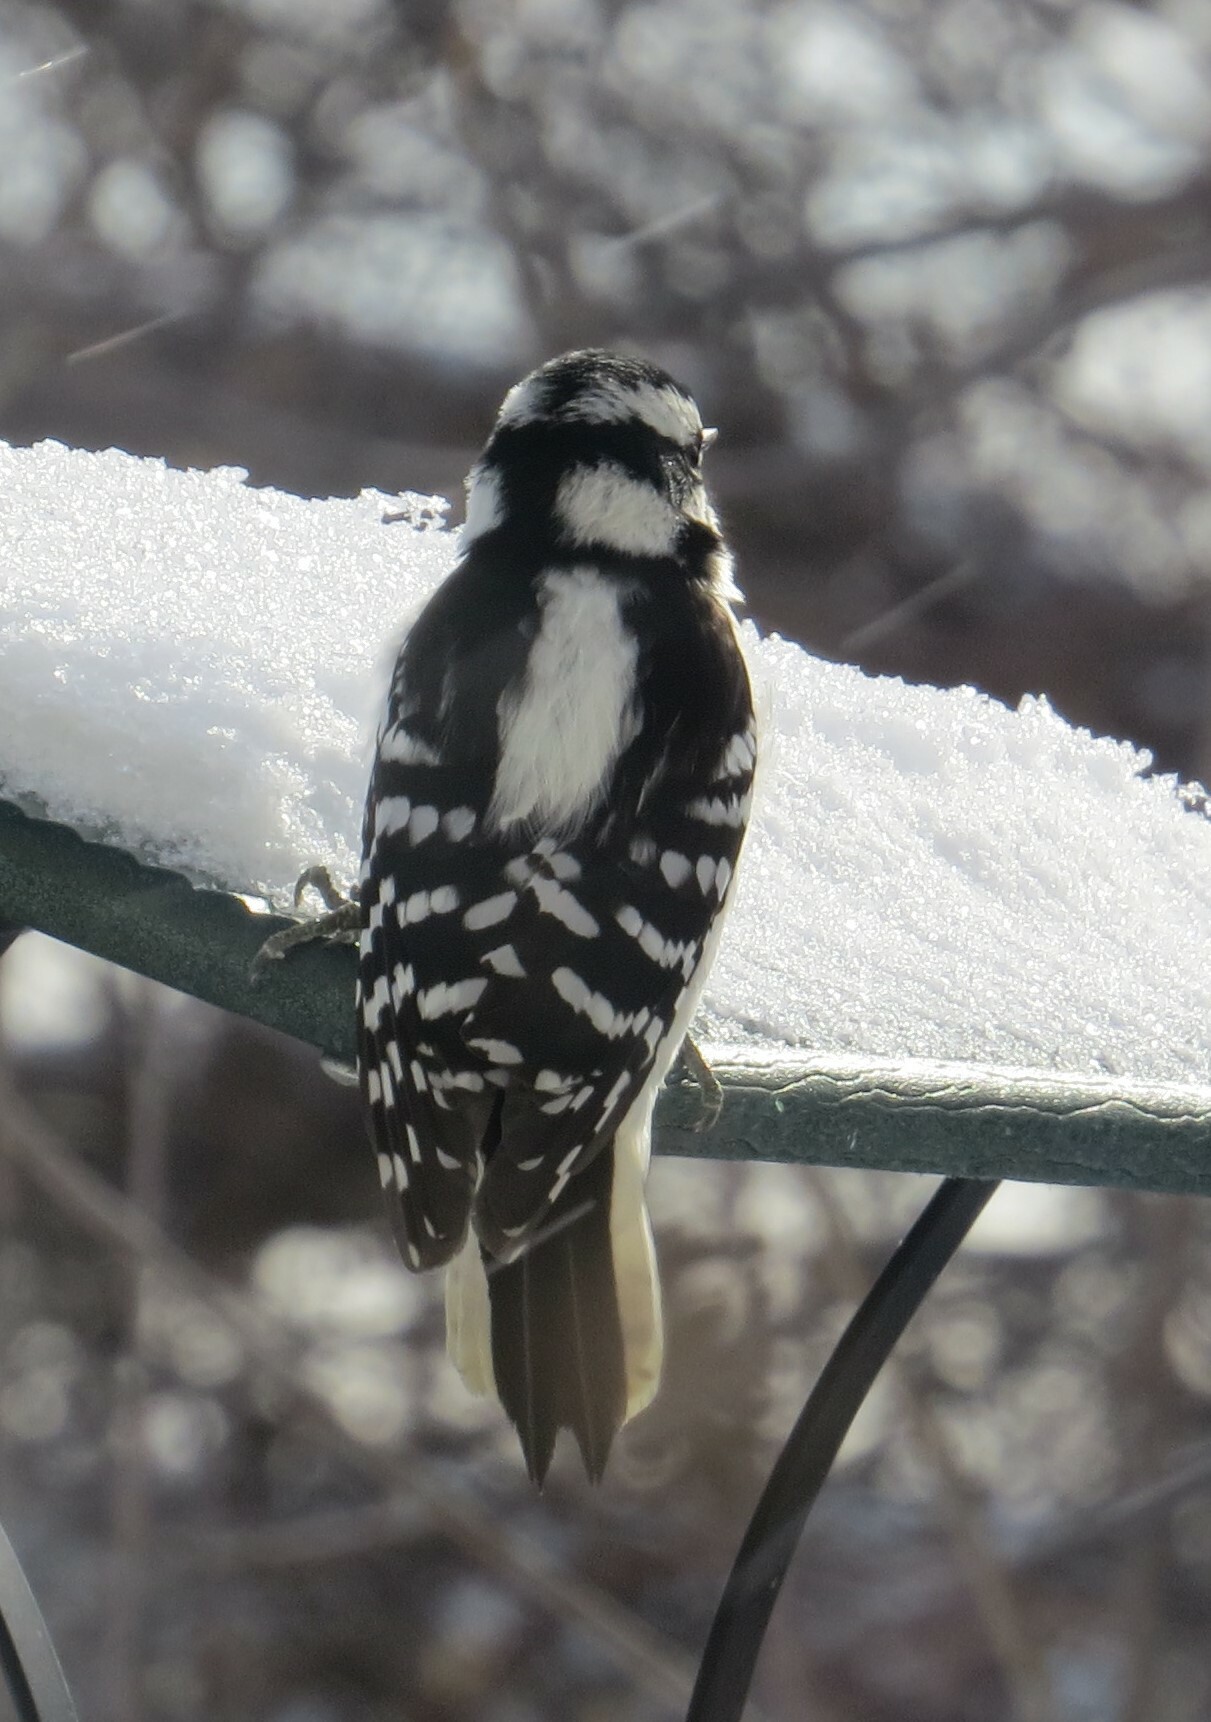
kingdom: Animalia
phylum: Chordata
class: Aves
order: Piciformes
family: Picidae
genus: Dryobates
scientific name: Dryobates pubescens
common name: Downy woodpecker
